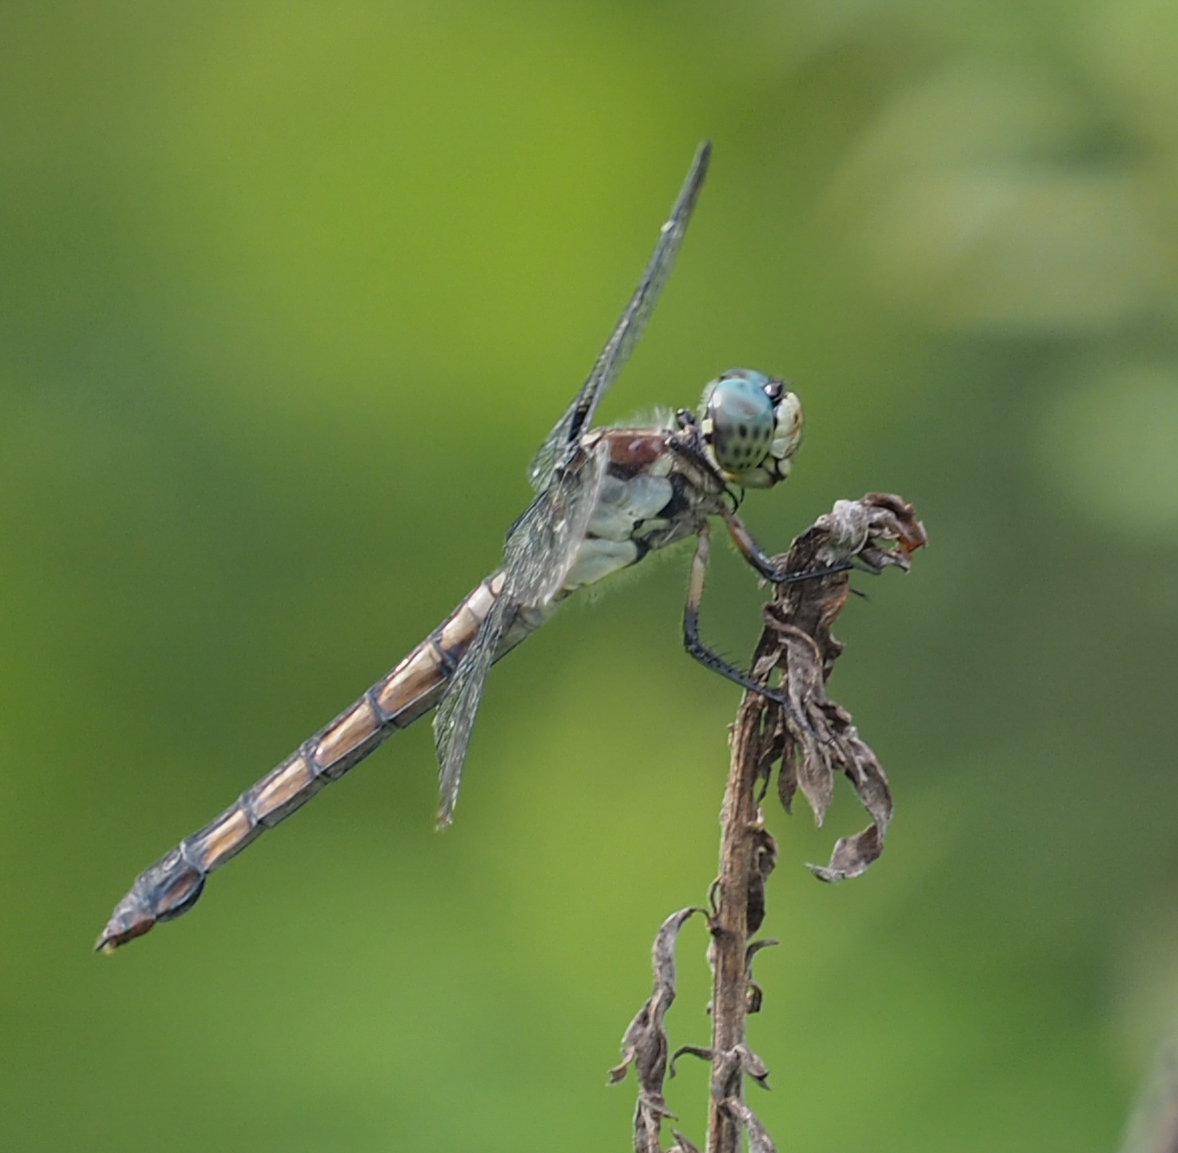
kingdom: Animalia
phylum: Arthropoda
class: Insecta
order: Odonata
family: Libellulidae
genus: Libellula
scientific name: Libellula vibrans
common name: Great blue skimmer
